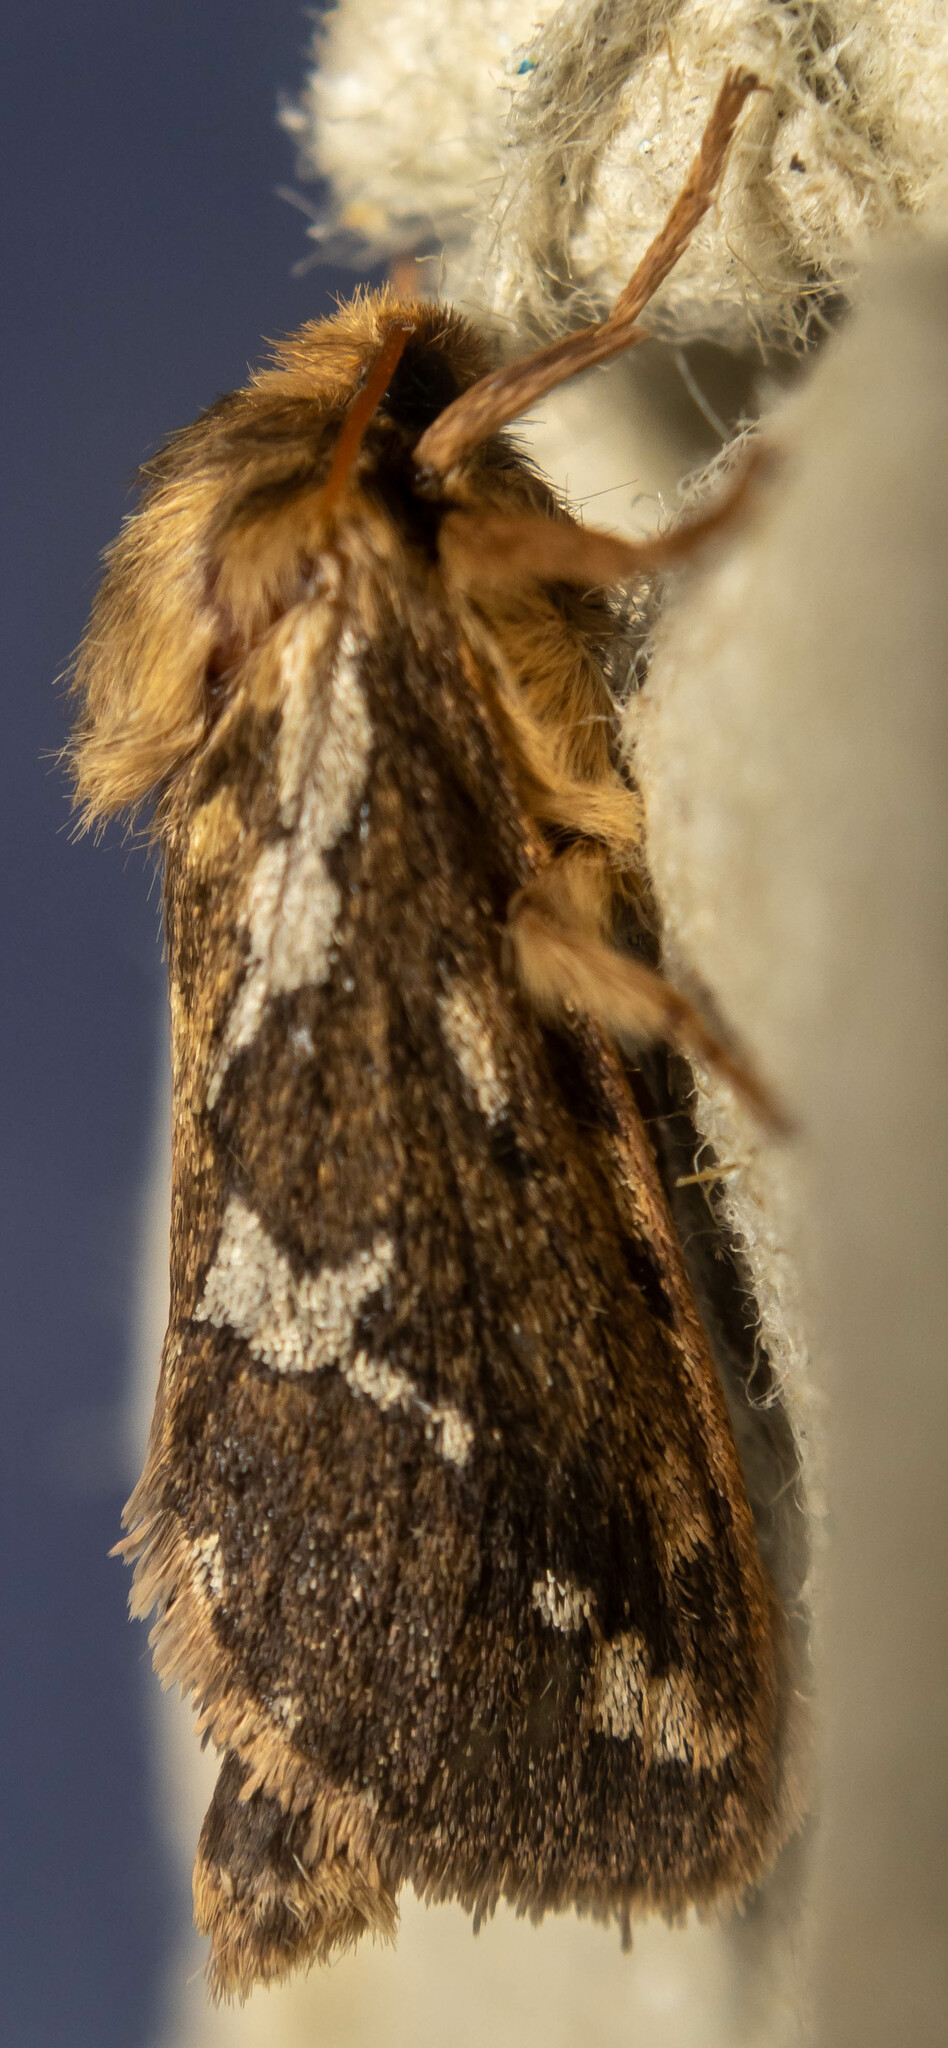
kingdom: Animalia
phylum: Arthropoda
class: Insecta
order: Lepidoptera
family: Hepialidae
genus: Korscheltellus
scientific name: Korscheltellus lupulina
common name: Common swift
